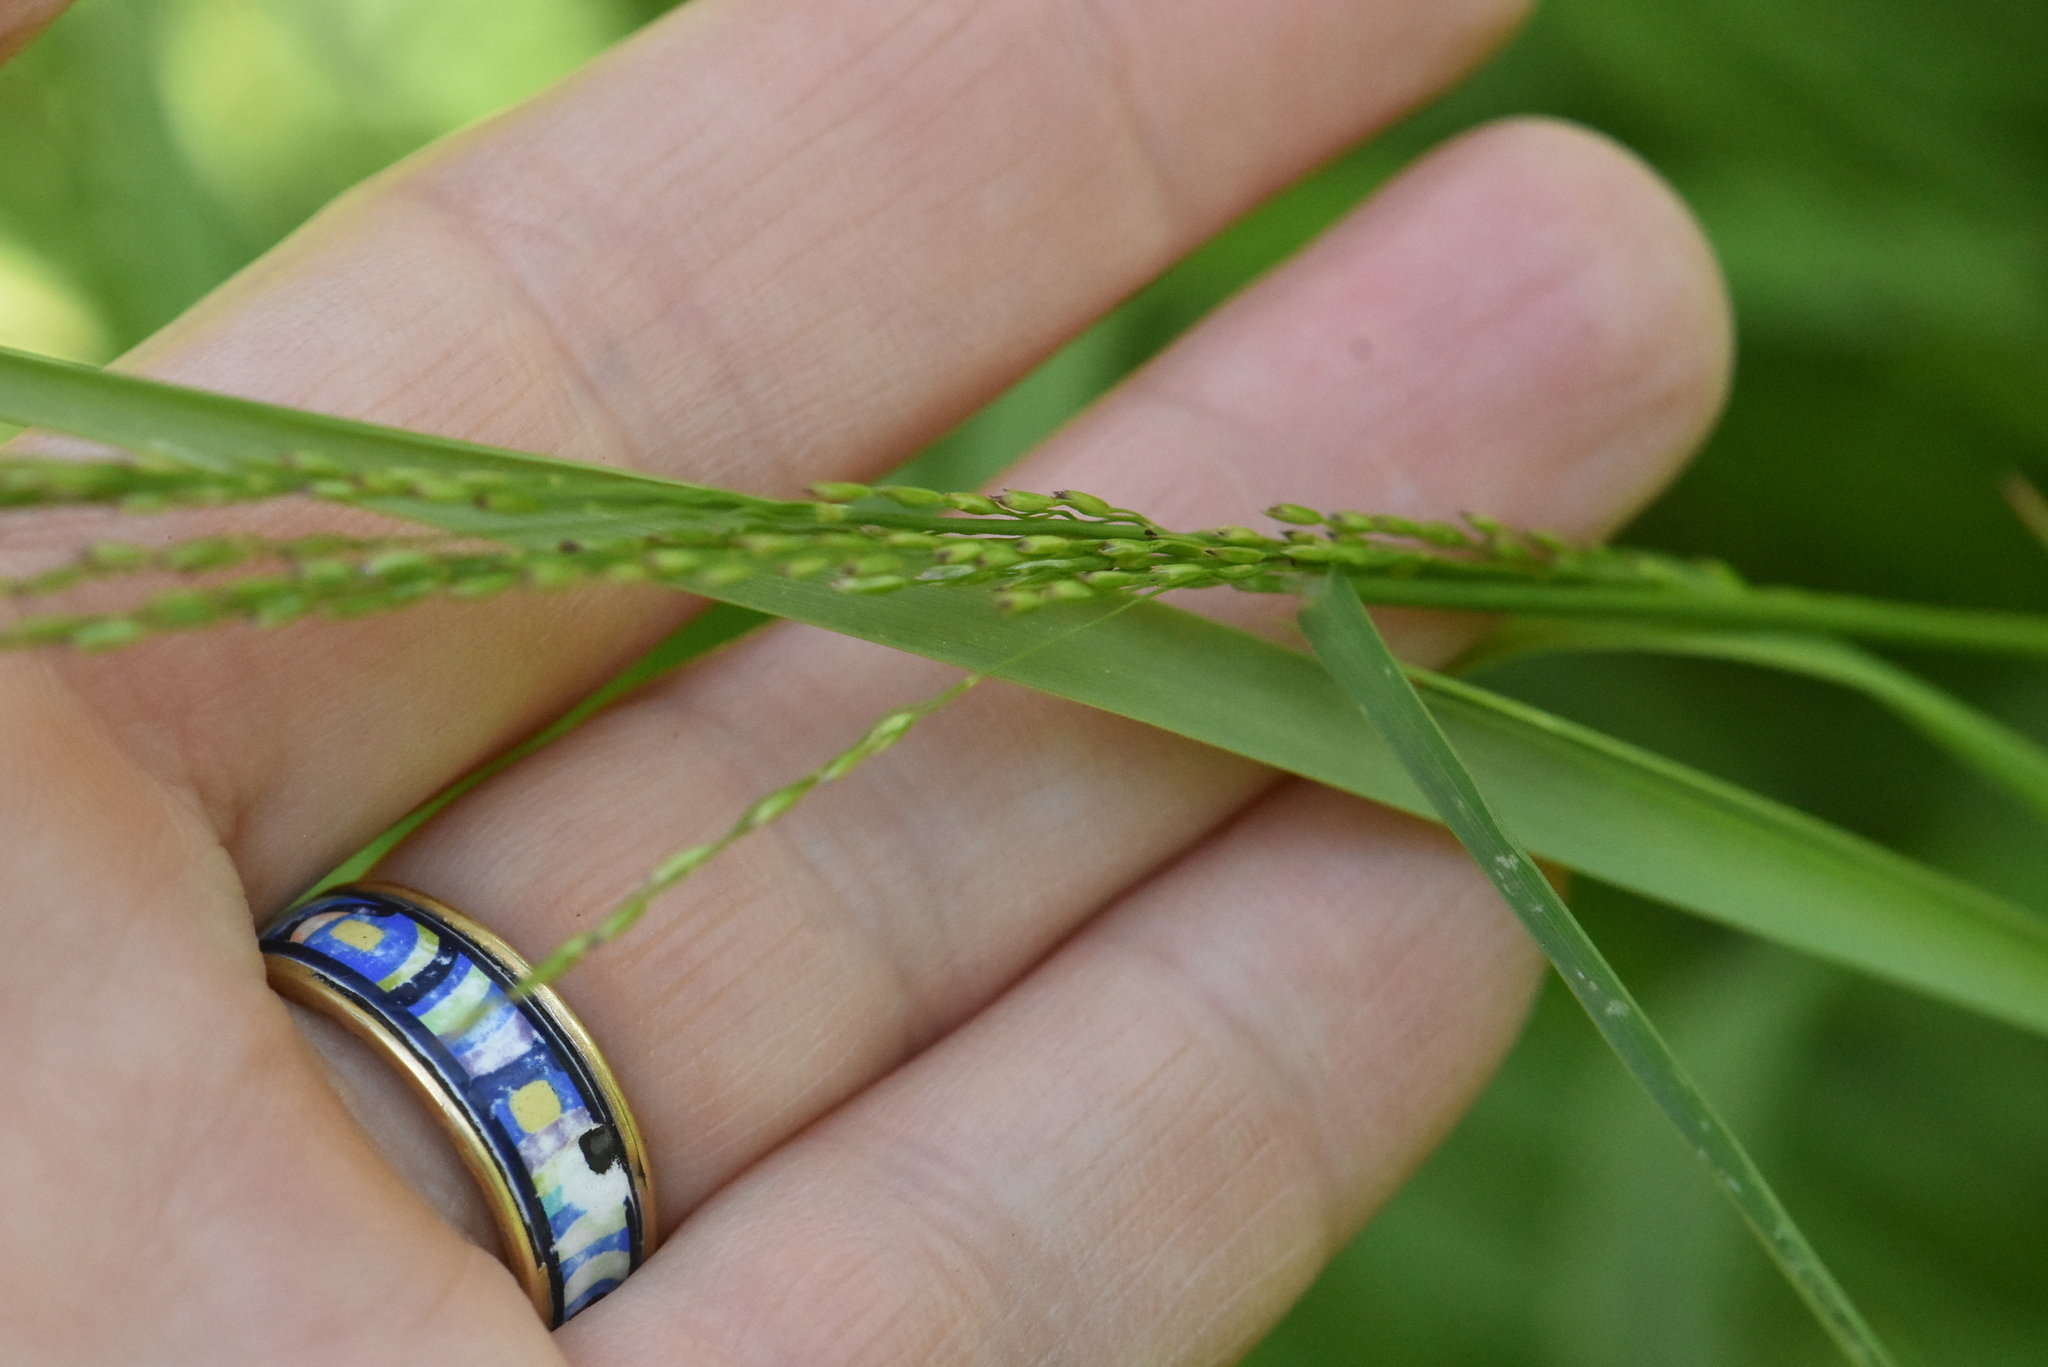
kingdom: Plantae
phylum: Tracheophyta
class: Liliopsida
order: Poales
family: Poaceae
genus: Poa
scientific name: Poa palustris
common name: Swamp meadow-grass
